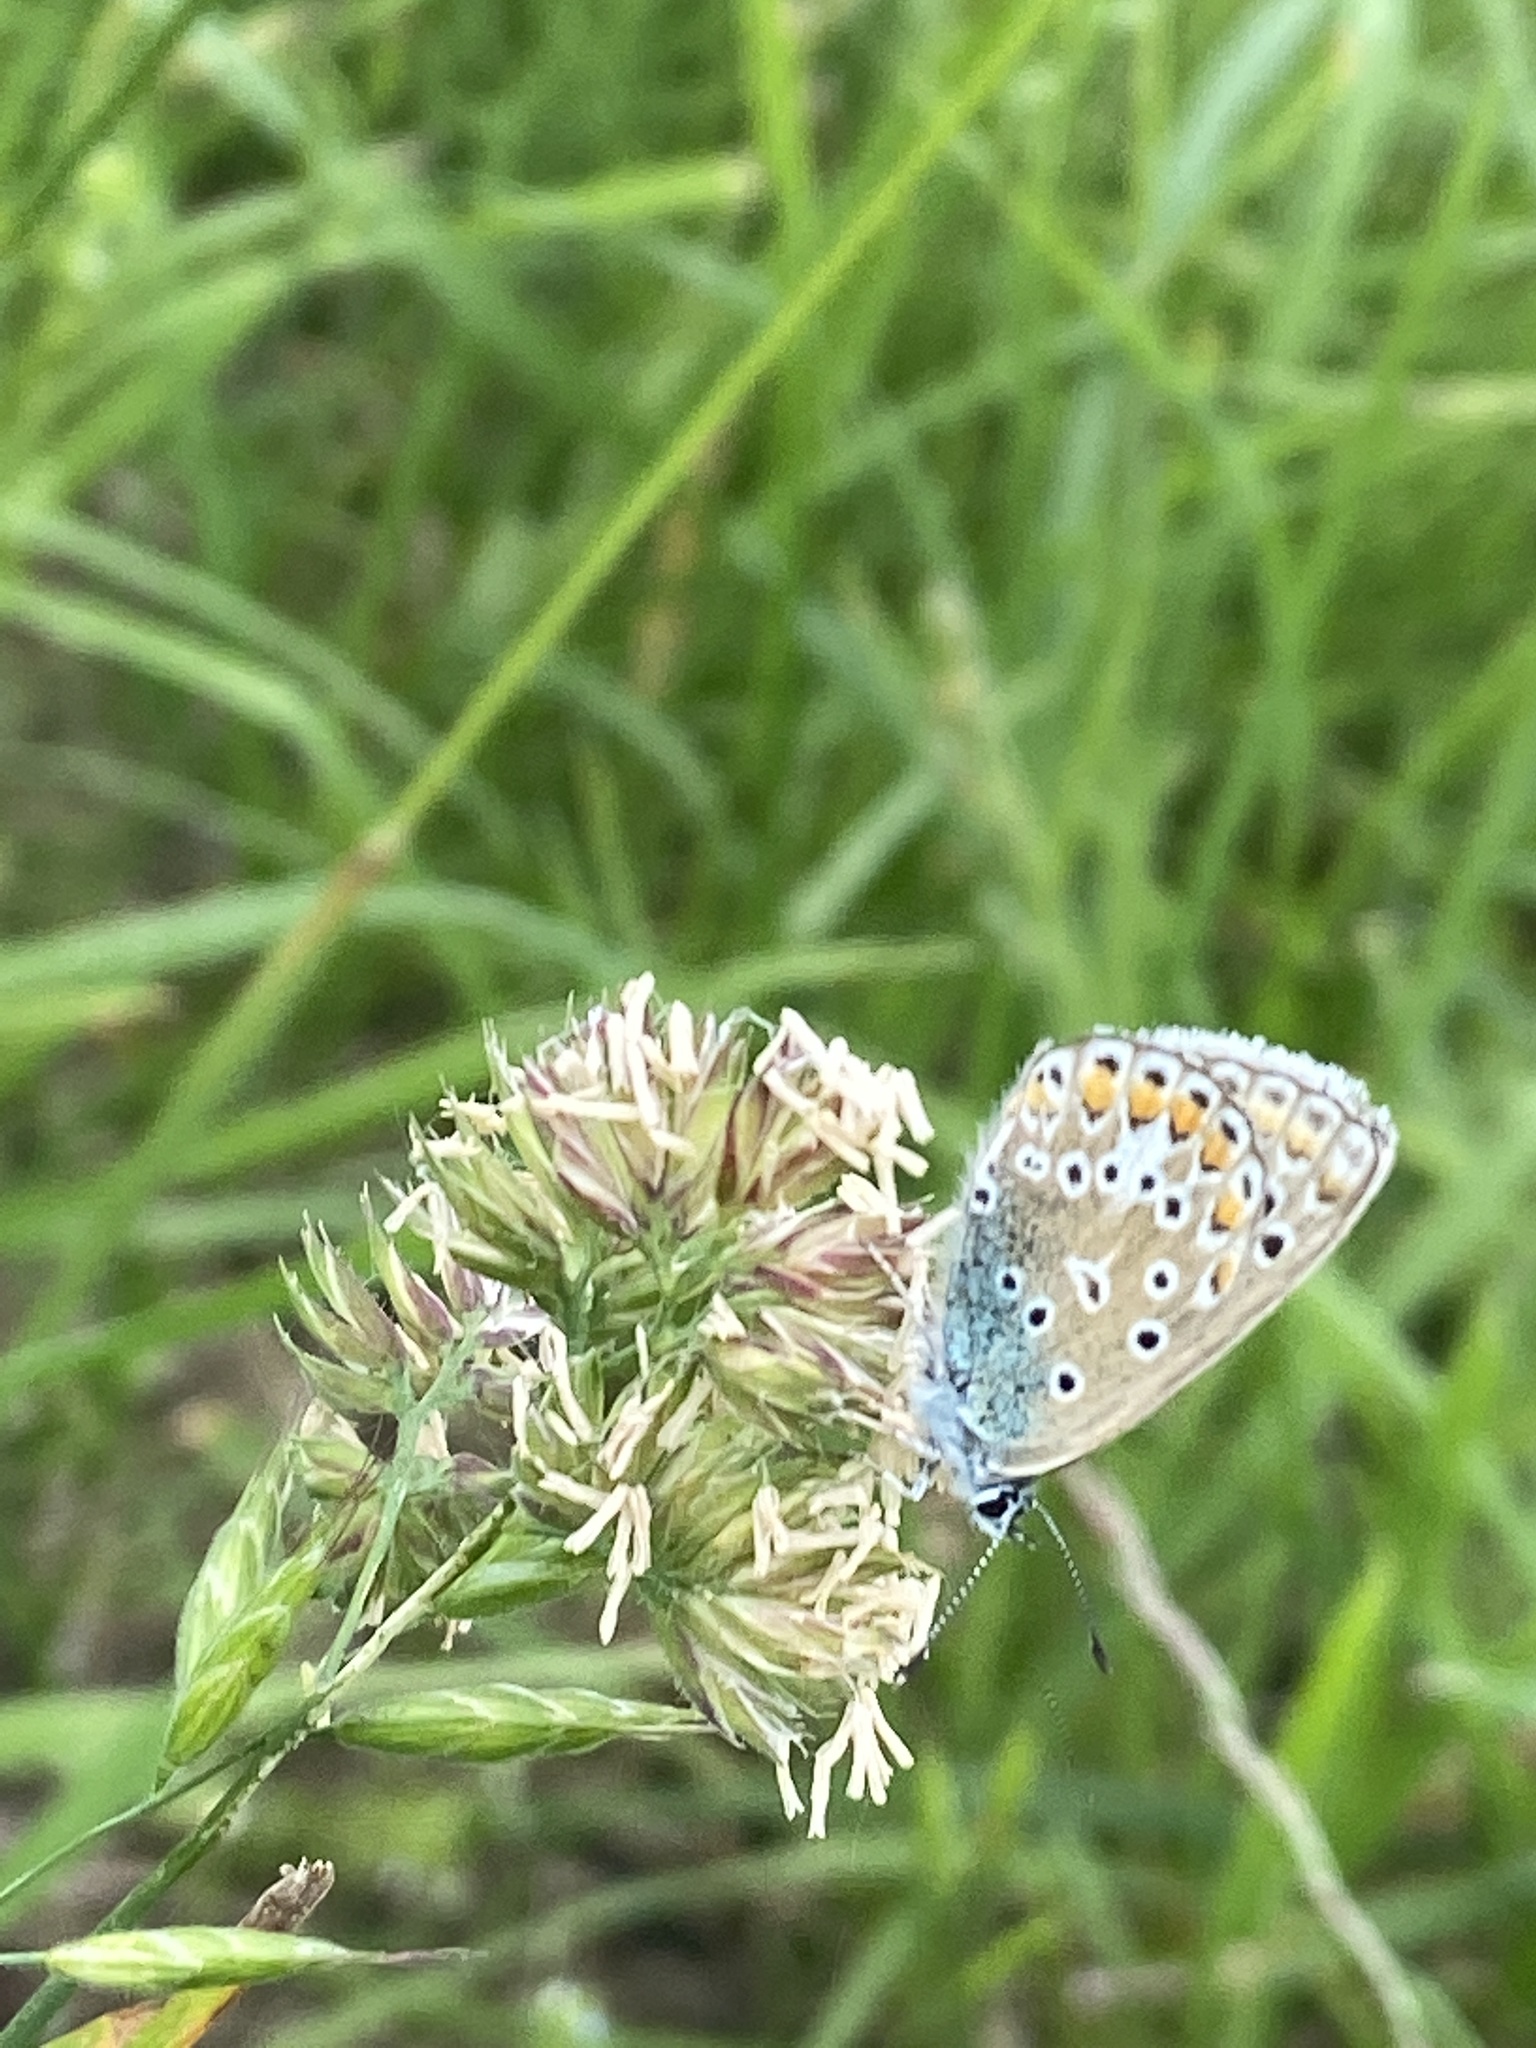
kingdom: Animalia
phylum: Arthropoda
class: Insecta
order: Lepidoptera
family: Lycaenidae
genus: Polyommatus
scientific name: Polyommatus icarus
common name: Common blue
